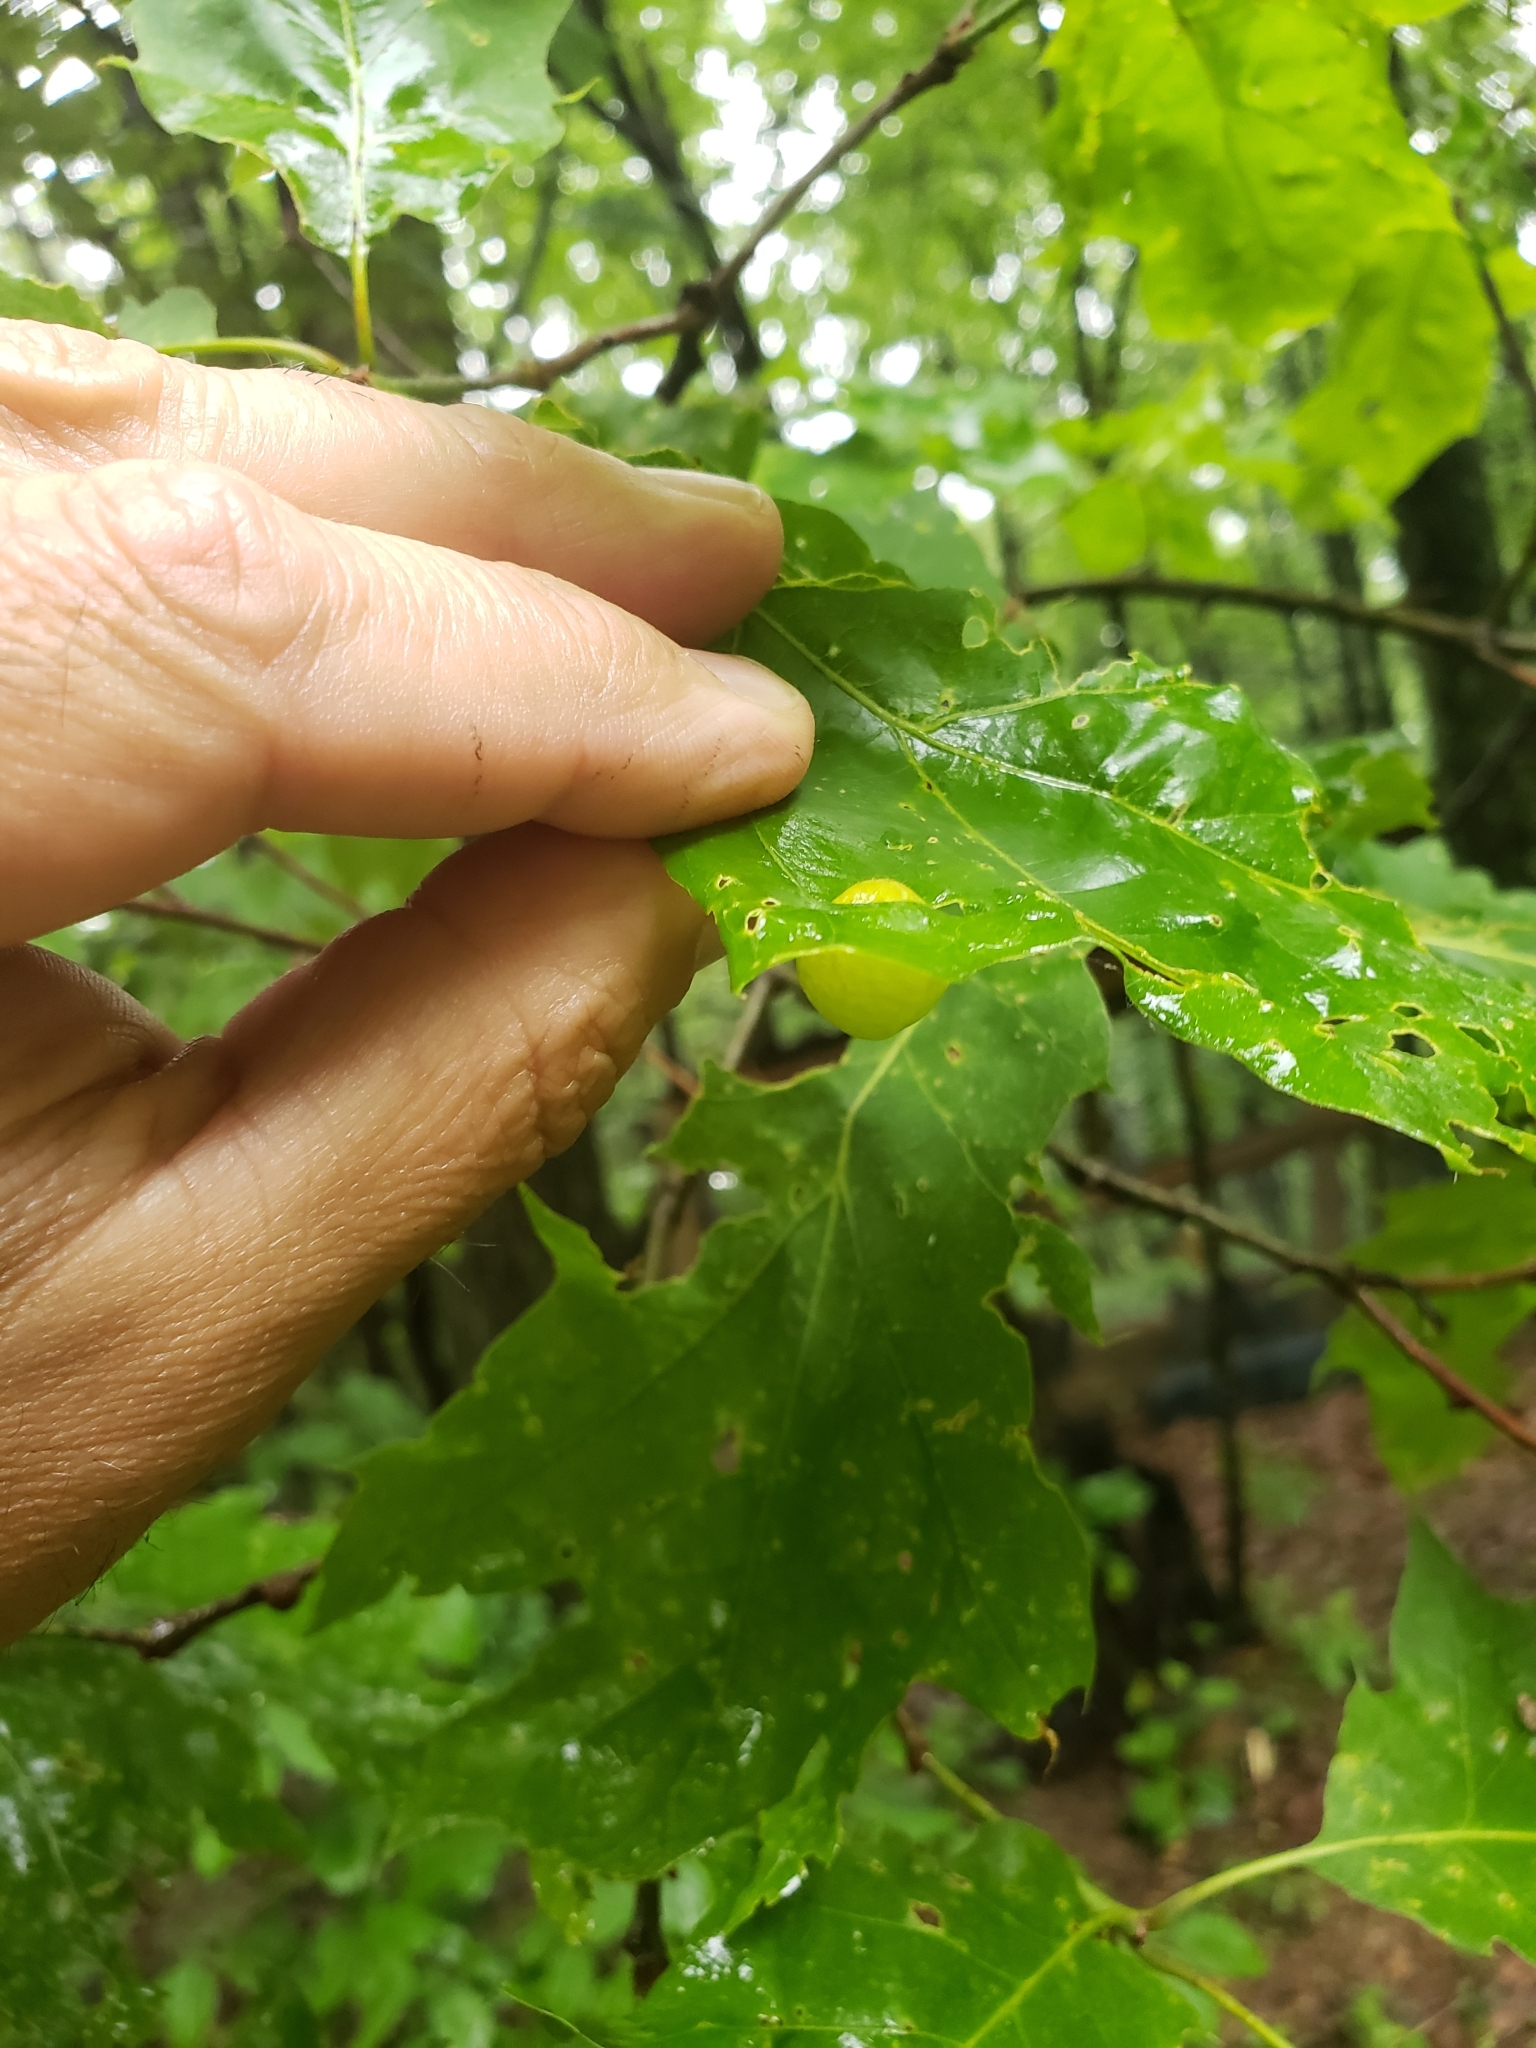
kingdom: Animalia
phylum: Arthropoda
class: Insecta
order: Hymenoptera
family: Cynipidae
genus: Amphibolips
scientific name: Amphibolips
